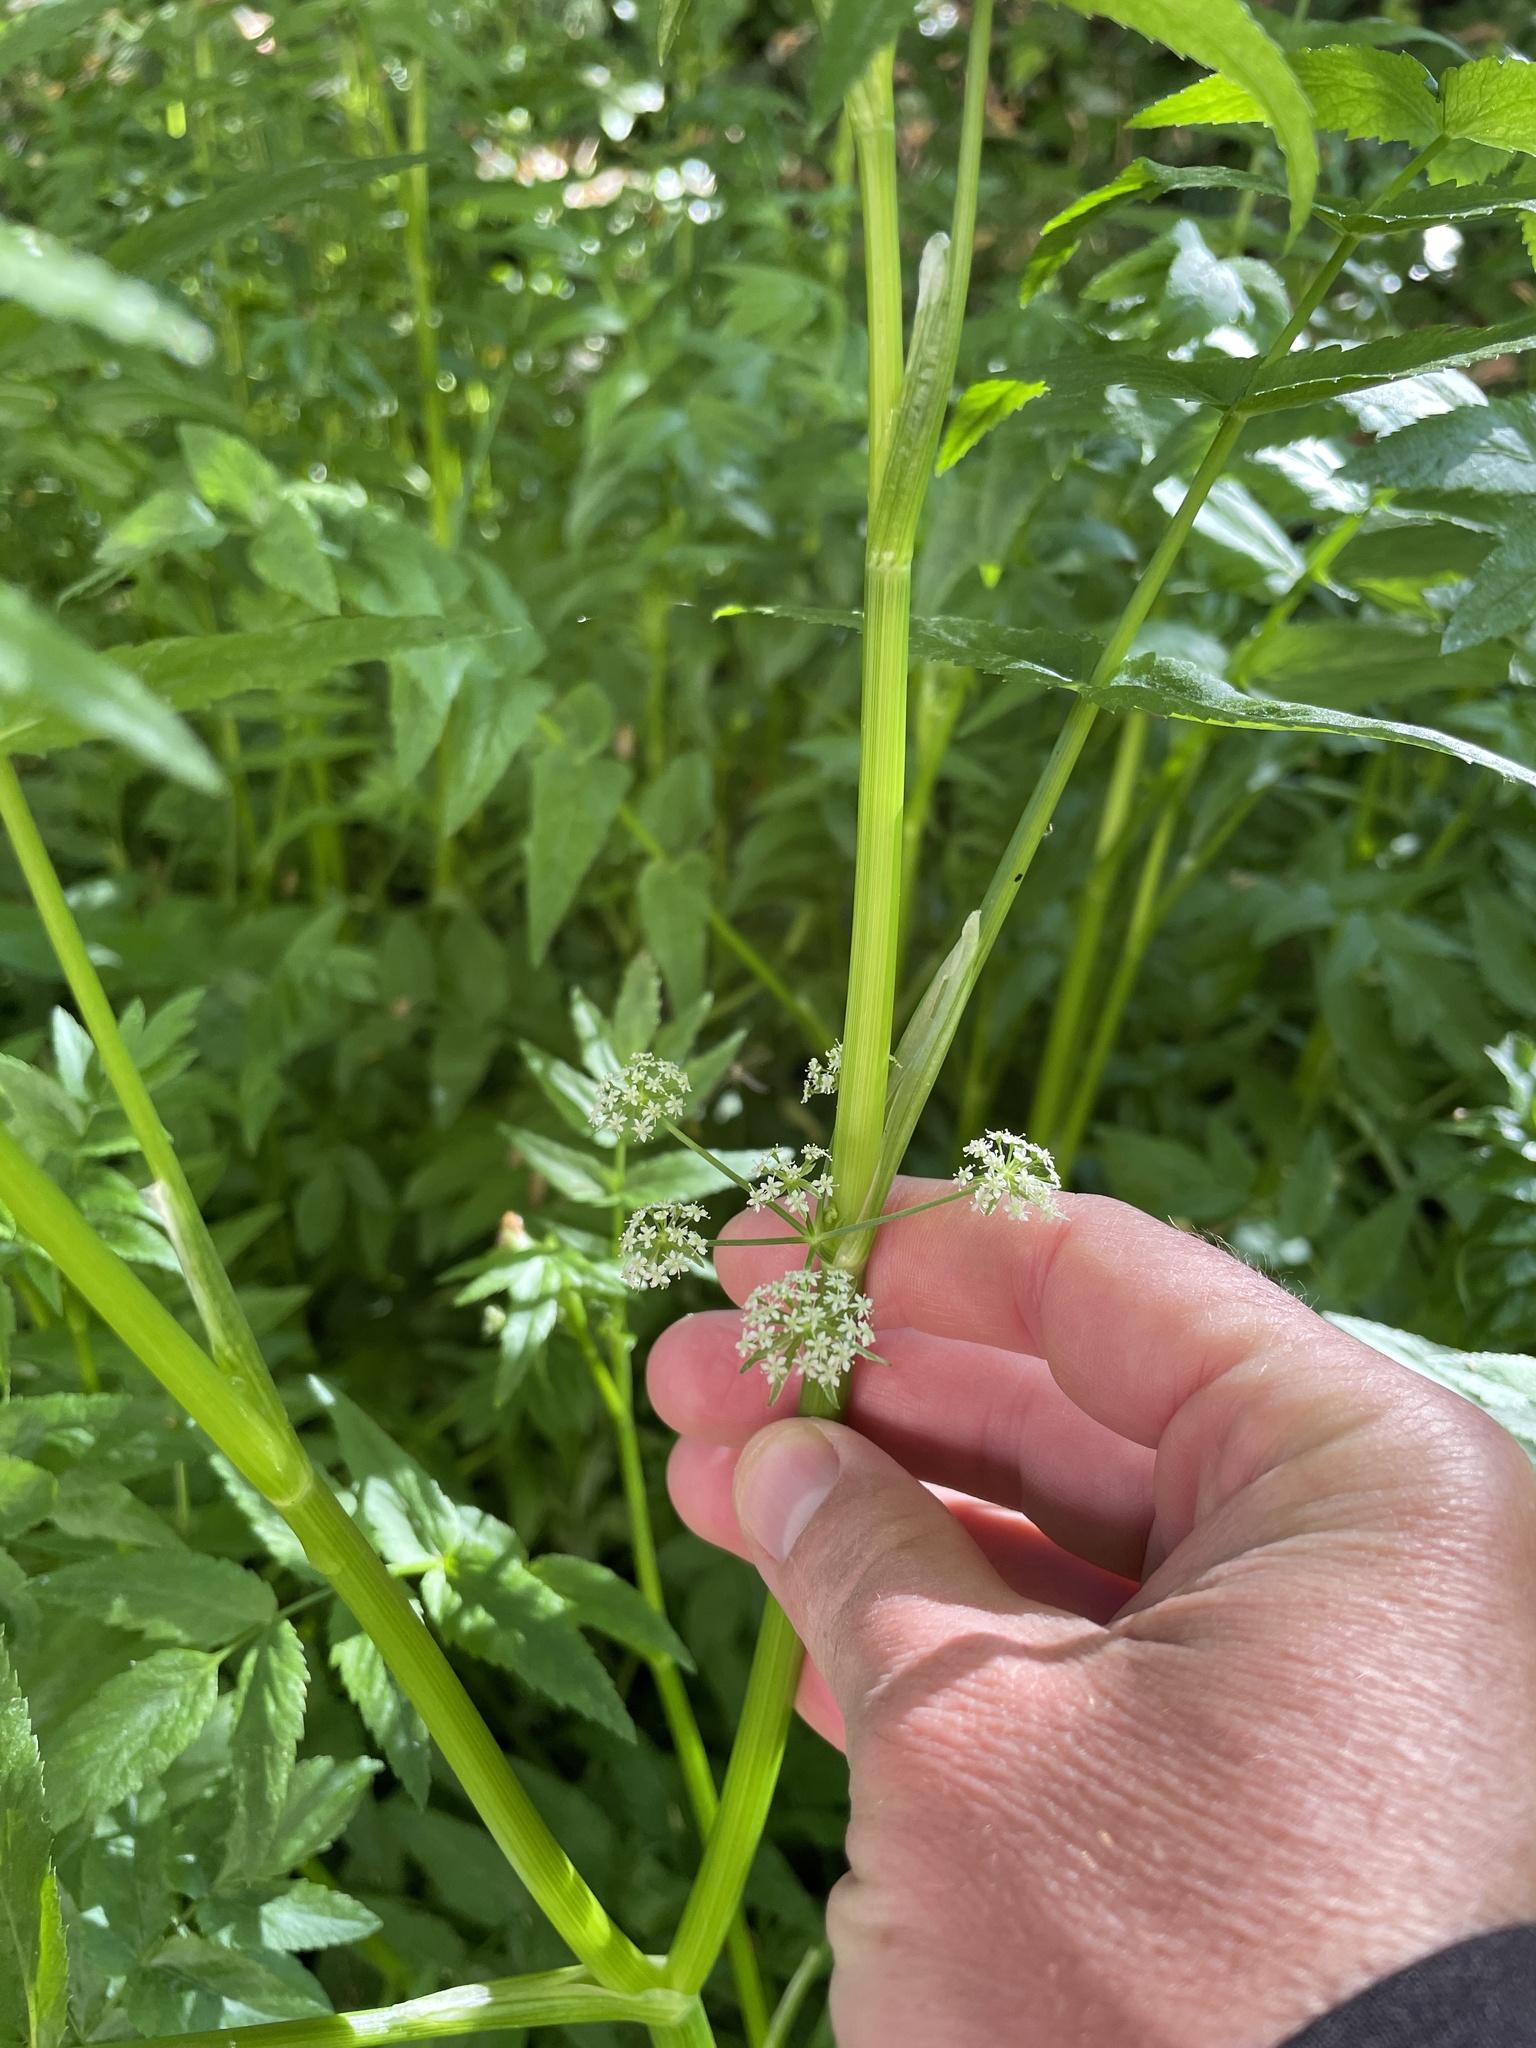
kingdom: Plantae
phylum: Tracheophyta
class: Magnoliopsida
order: Apiales
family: Apiaceae
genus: Berula
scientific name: Berula erecta
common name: Lesser water-parsnip
